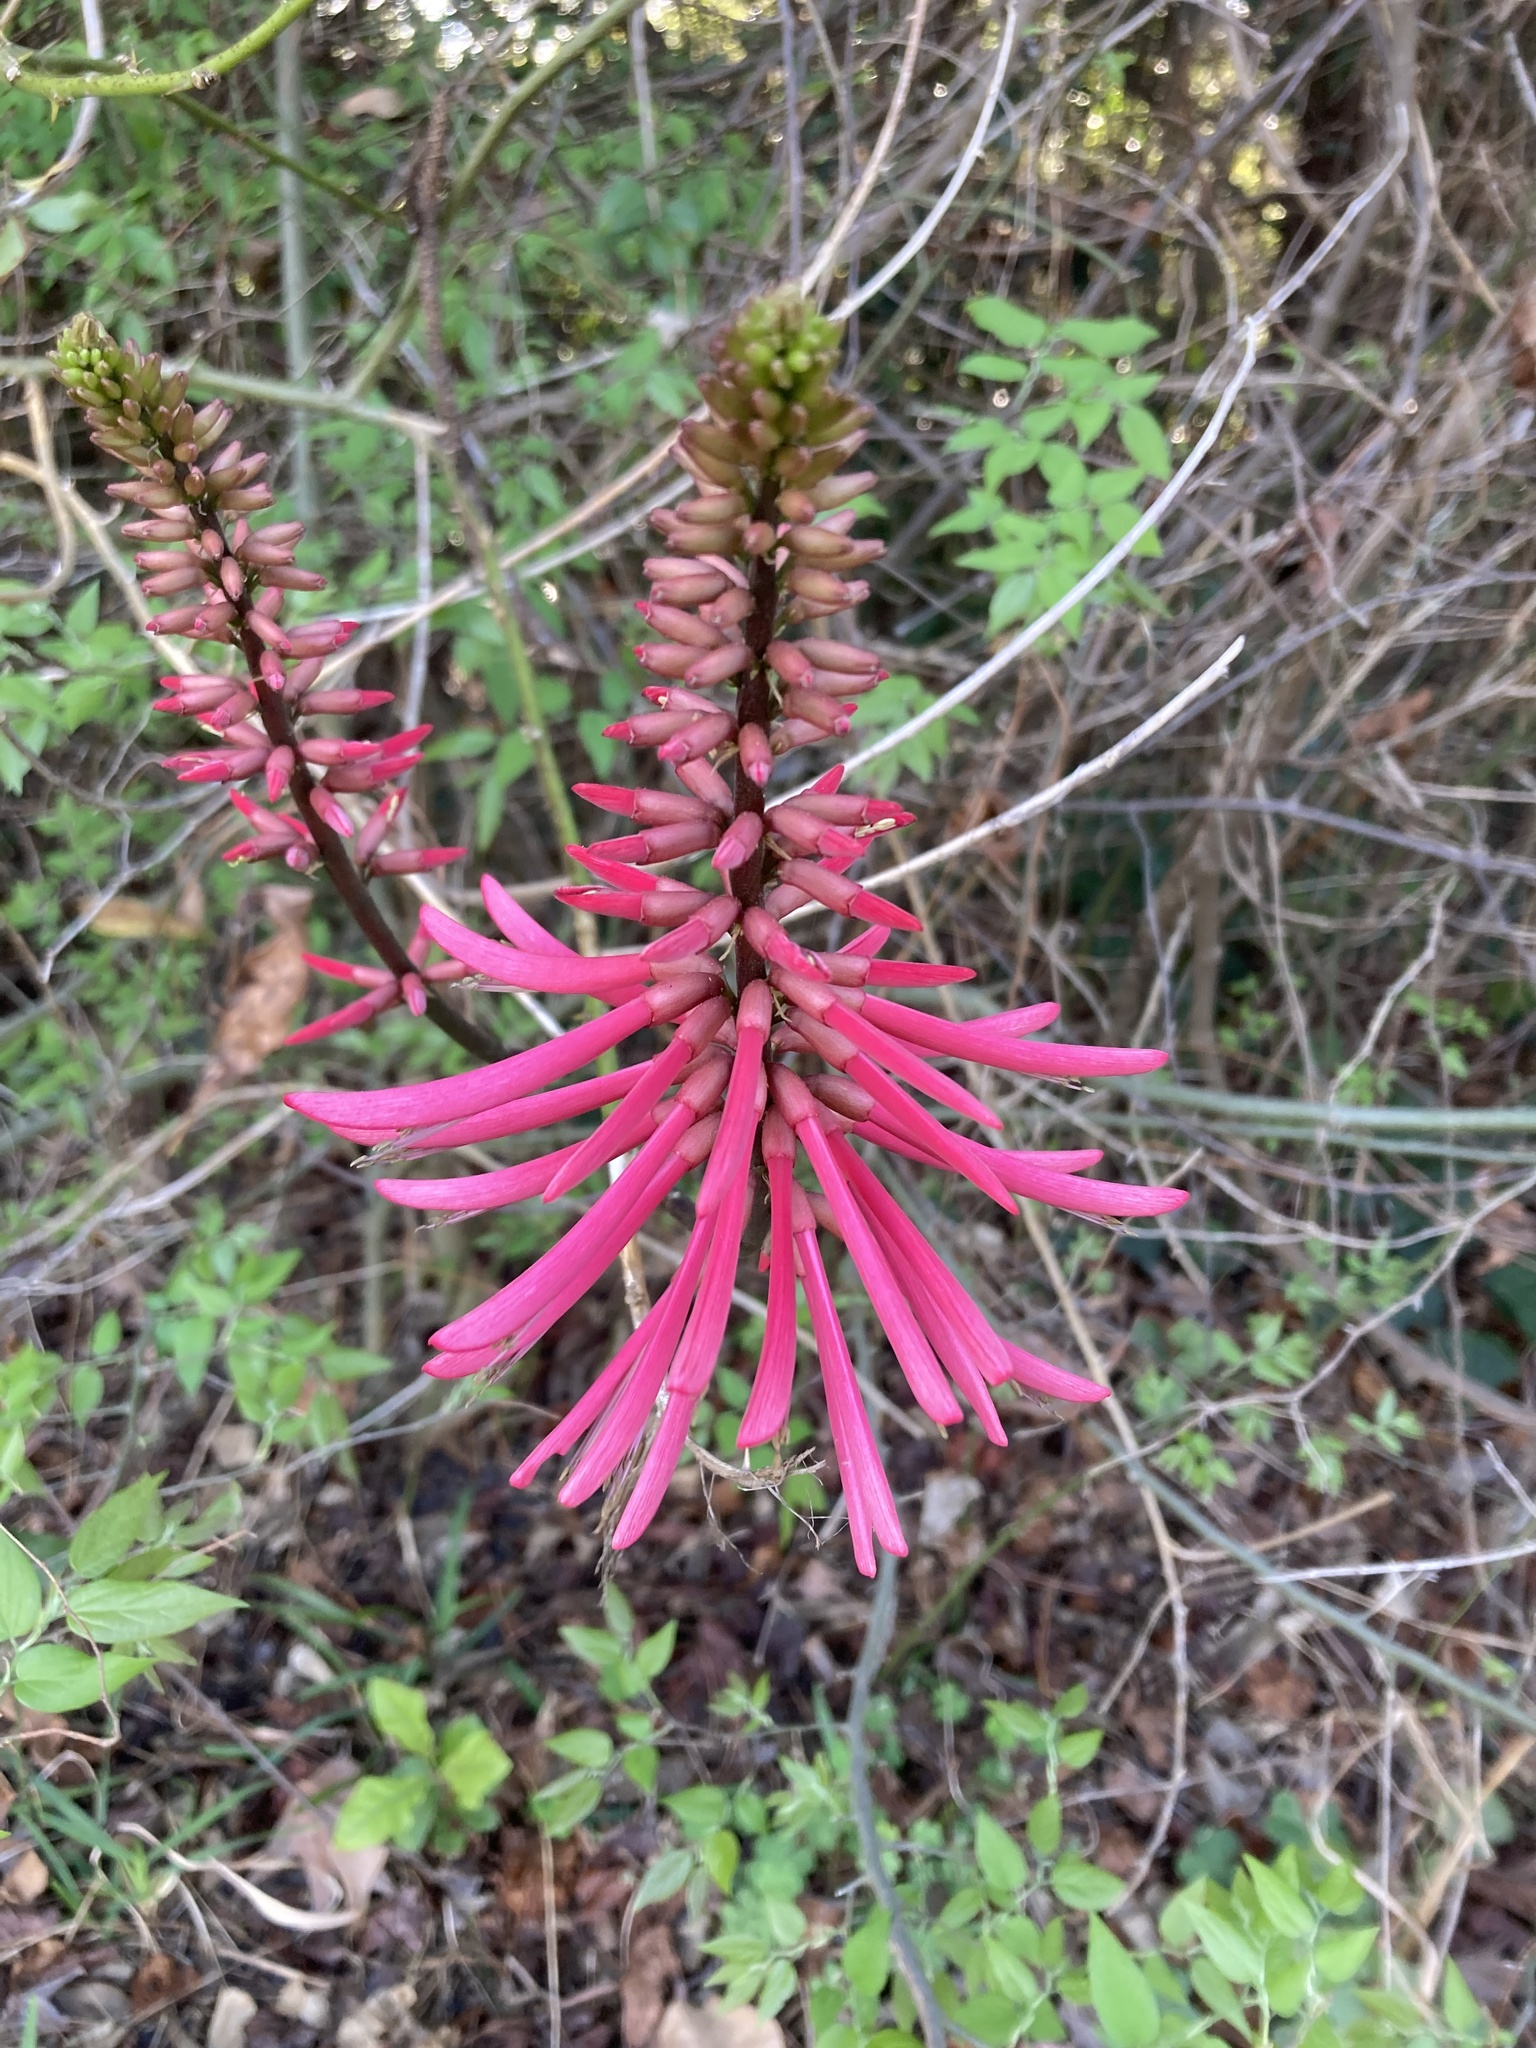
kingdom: Plantae
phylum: Tracheophyta
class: Magnoliopsida
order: Fabales
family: Fabaceae
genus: Erythrina
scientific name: Erythrina herbacea
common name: Coral-bean
